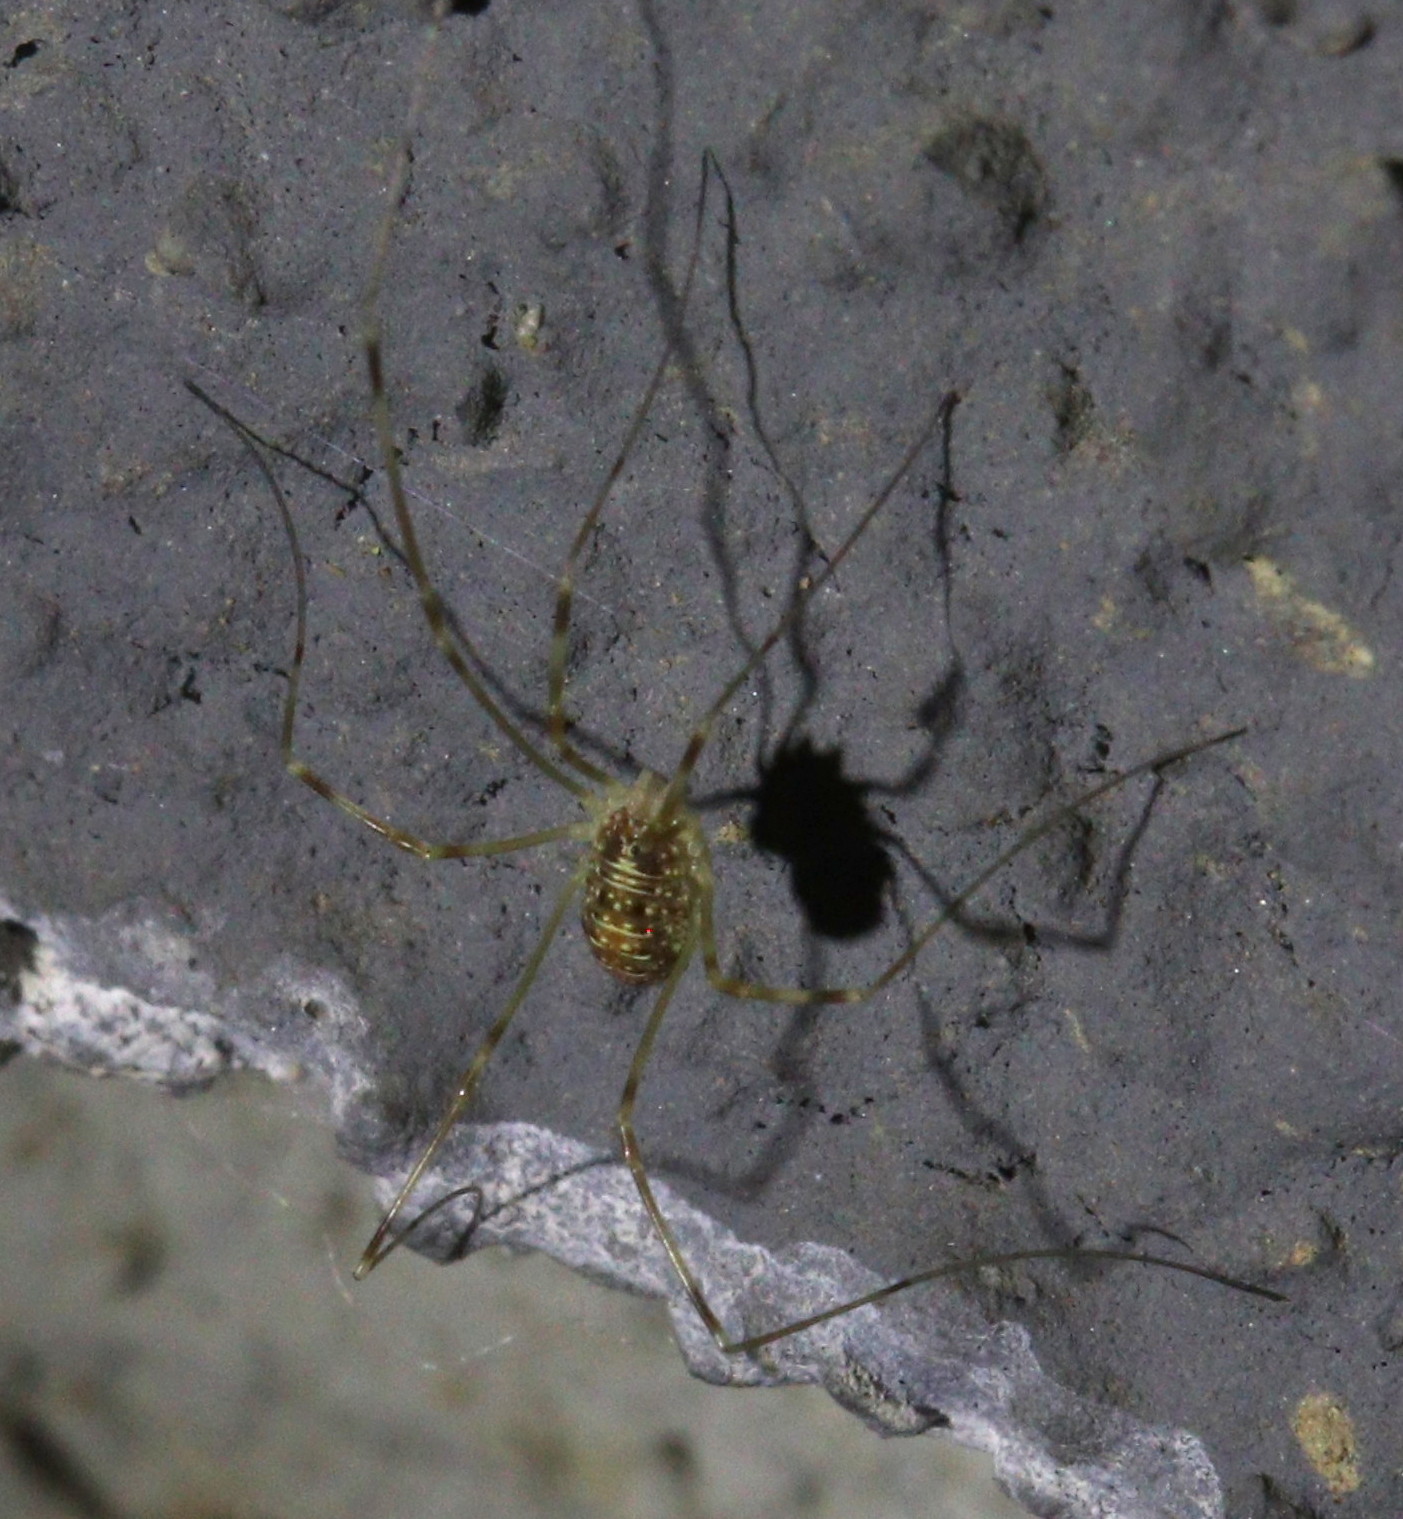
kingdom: Animalia
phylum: Arthropoda
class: Arachnida
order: Opiliones
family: Phalangiidae
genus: Opilio
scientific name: Opilio canestrinii
